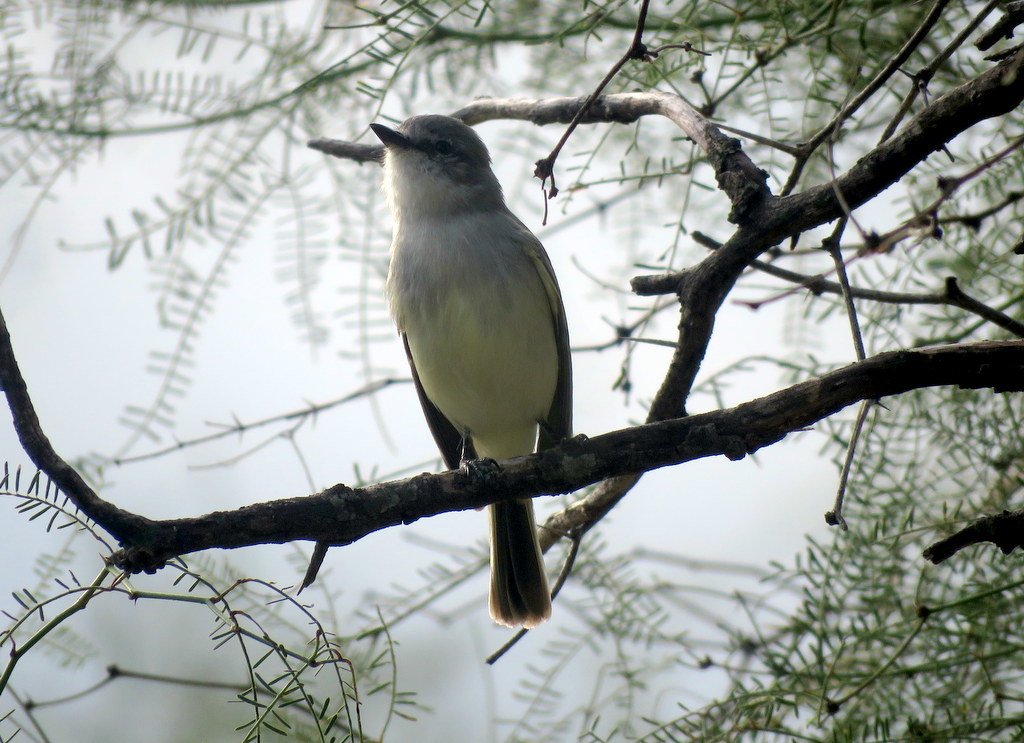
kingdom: Animalia
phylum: Chordata
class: Aves
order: Passeriformes
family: Tyrannidae
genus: Suiriri
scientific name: Suiriri suiriri
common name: Suiriri flycatcher
